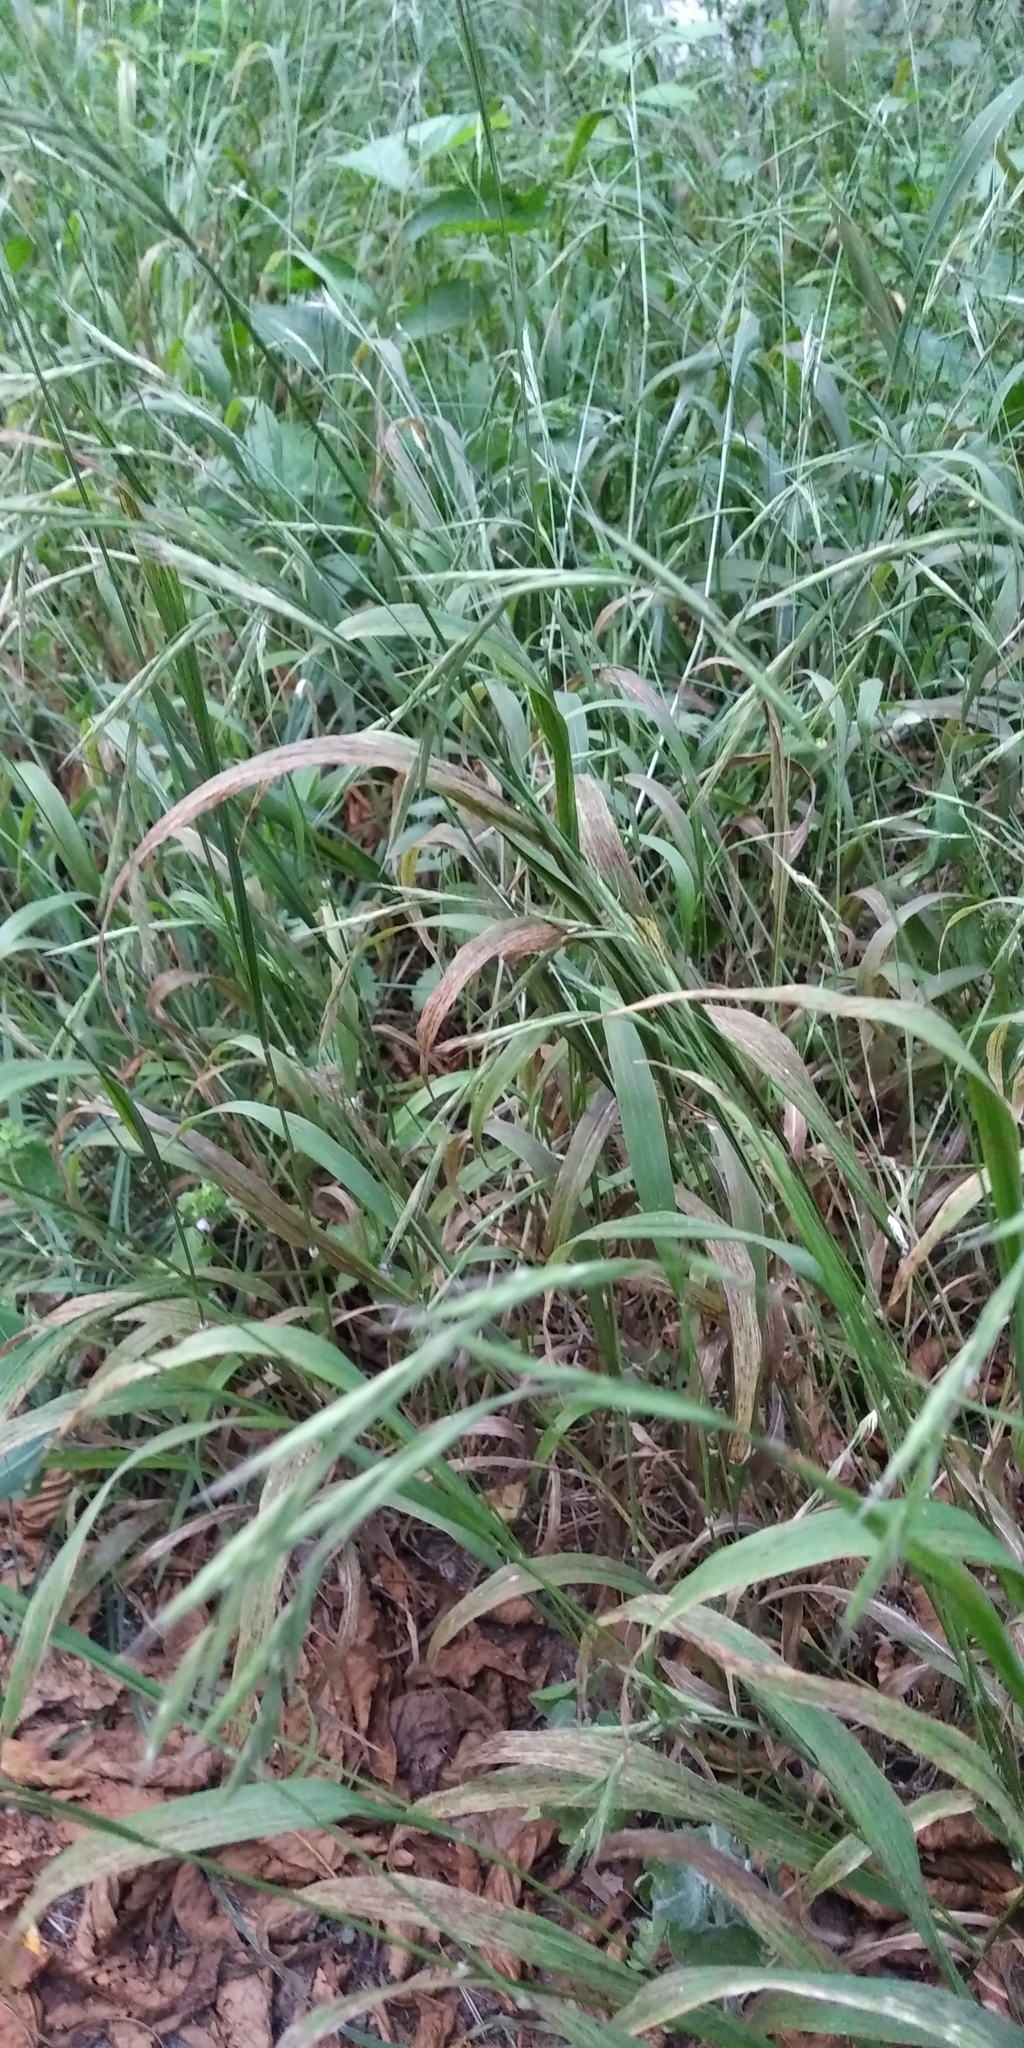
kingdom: Plantae
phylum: Tracheophyta
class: Liliopsida
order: Poales
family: Poaceae
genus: Brachypodium
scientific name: Brachypodium sylvaticum
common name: False-brome
